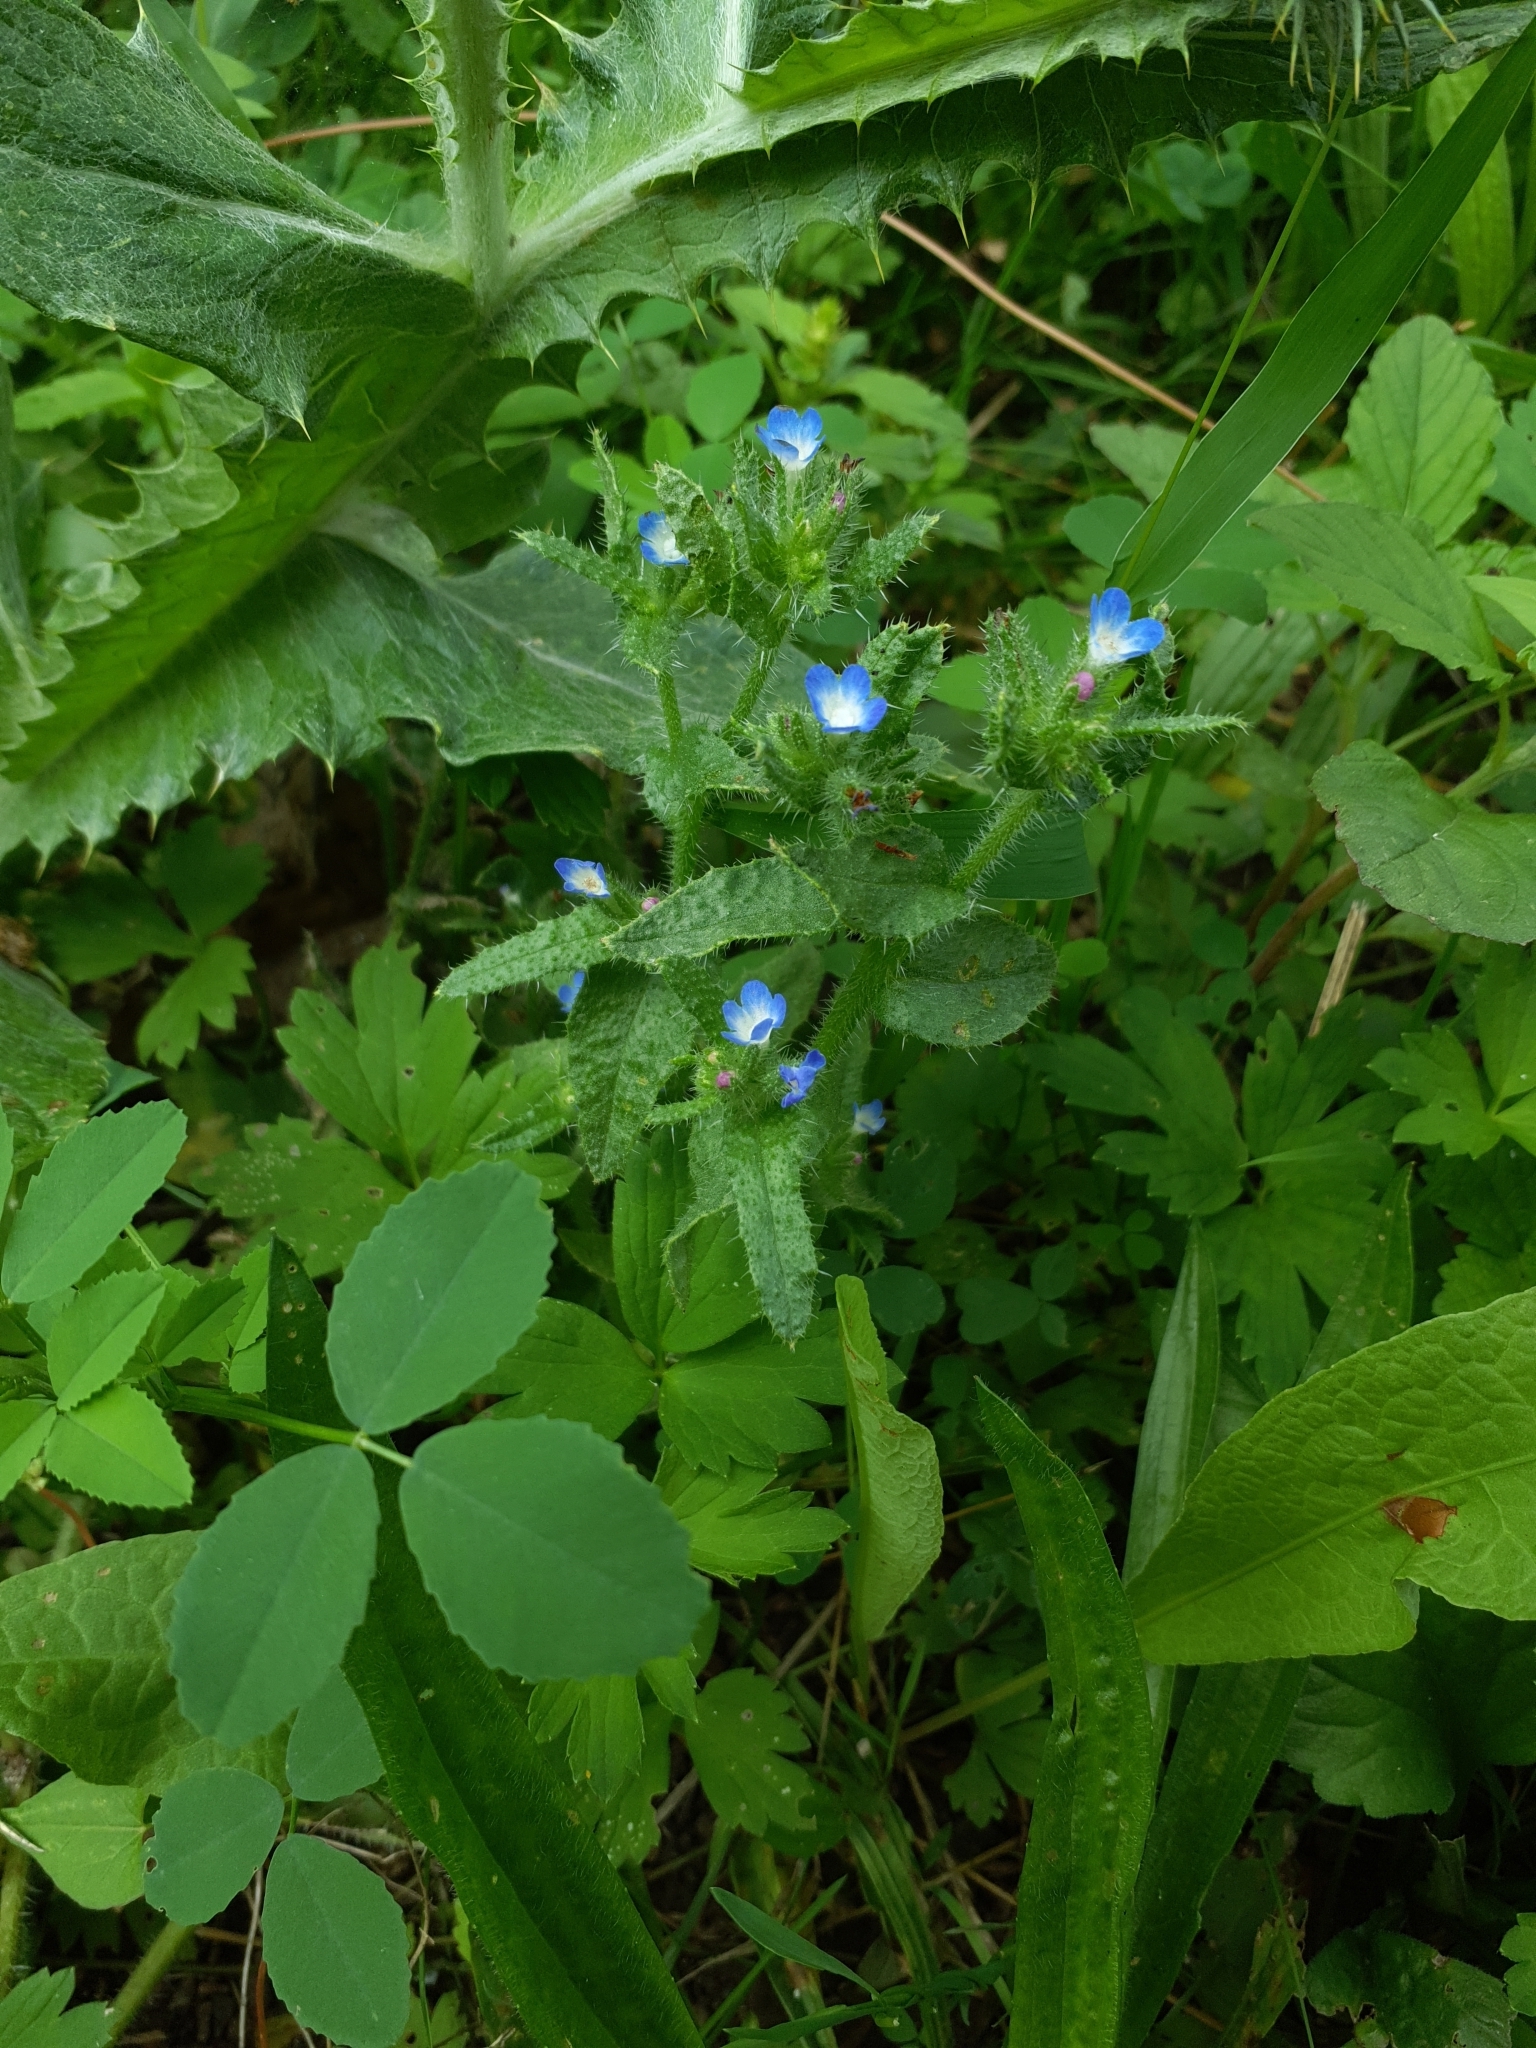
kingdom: Plantae
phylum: Tracheophyta
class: Magnoliopsida
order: Boraginales
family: Boraginaceae
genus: Lycopsis
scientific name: Lycopsis arvensis
